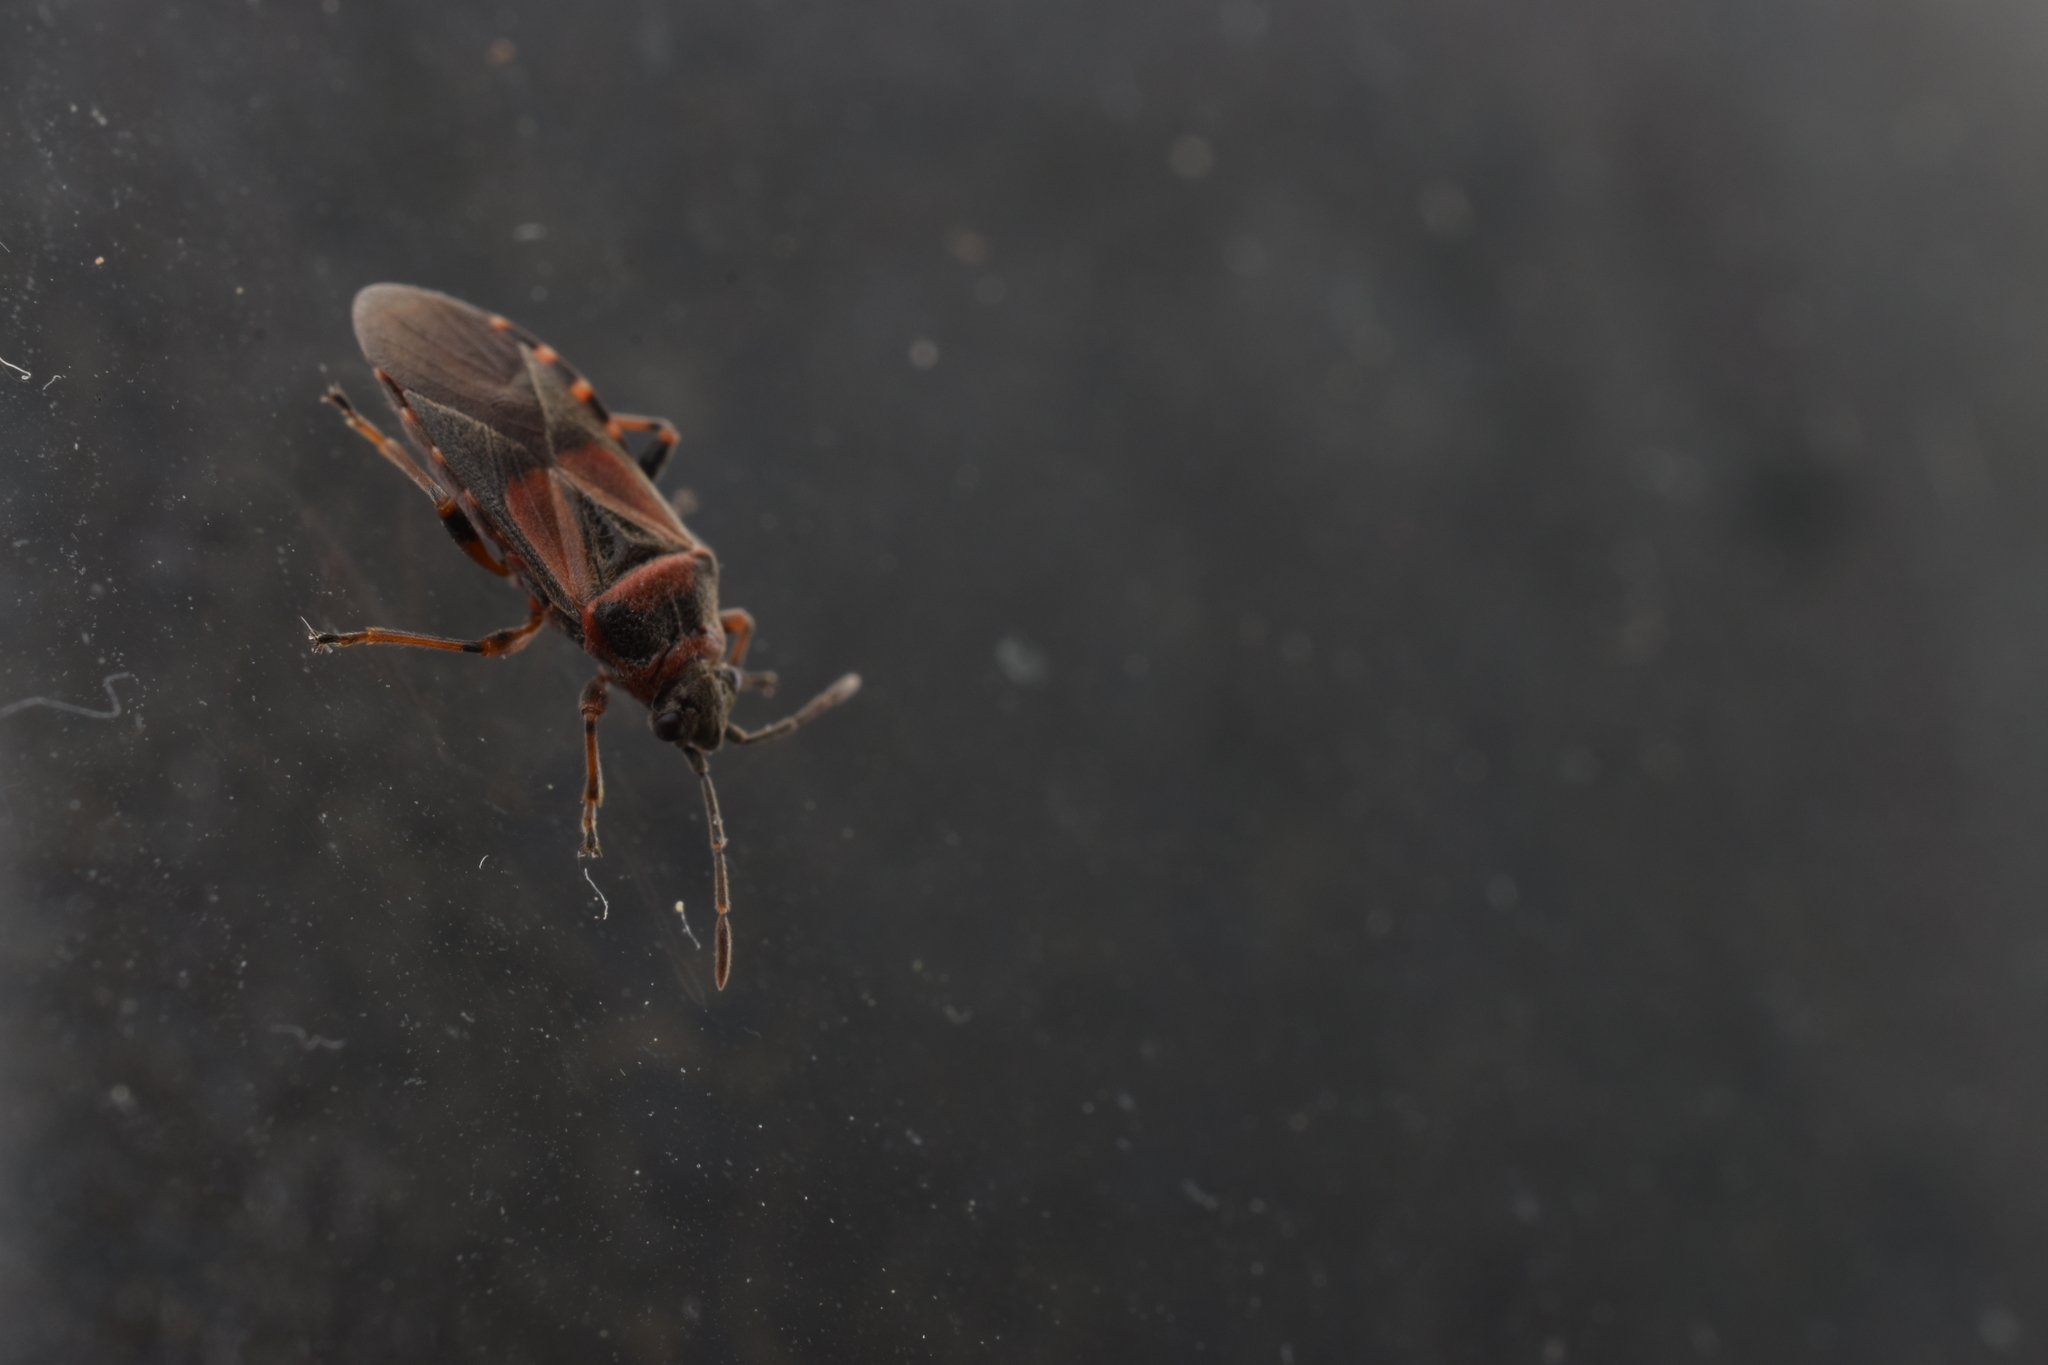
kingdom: Animalia
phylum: Arthropoda
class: Insecta
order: Hemiptera
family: Lygaeidae
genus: Arocatus
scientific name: Arocatus melanocephalus
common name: Lygaeid bug
